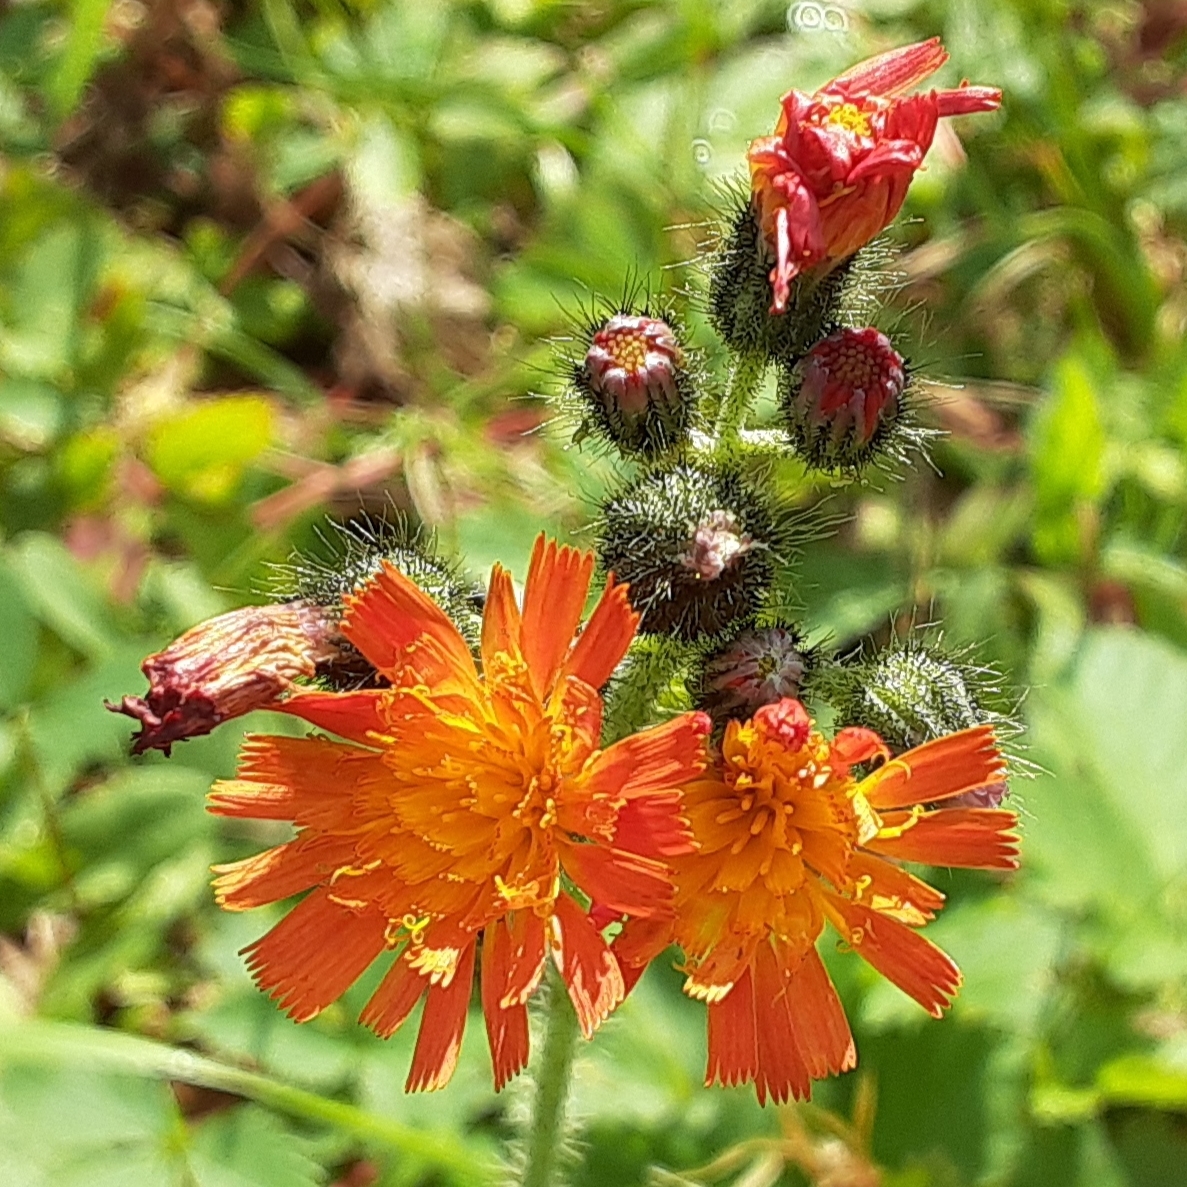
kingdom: Plantae
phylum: Tracheophyta
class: Magnoliopsida
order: Asterales
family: Asteraceae
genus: Pilosella
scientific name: Pilosella aurantiaca
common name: Fox-and-cubs
